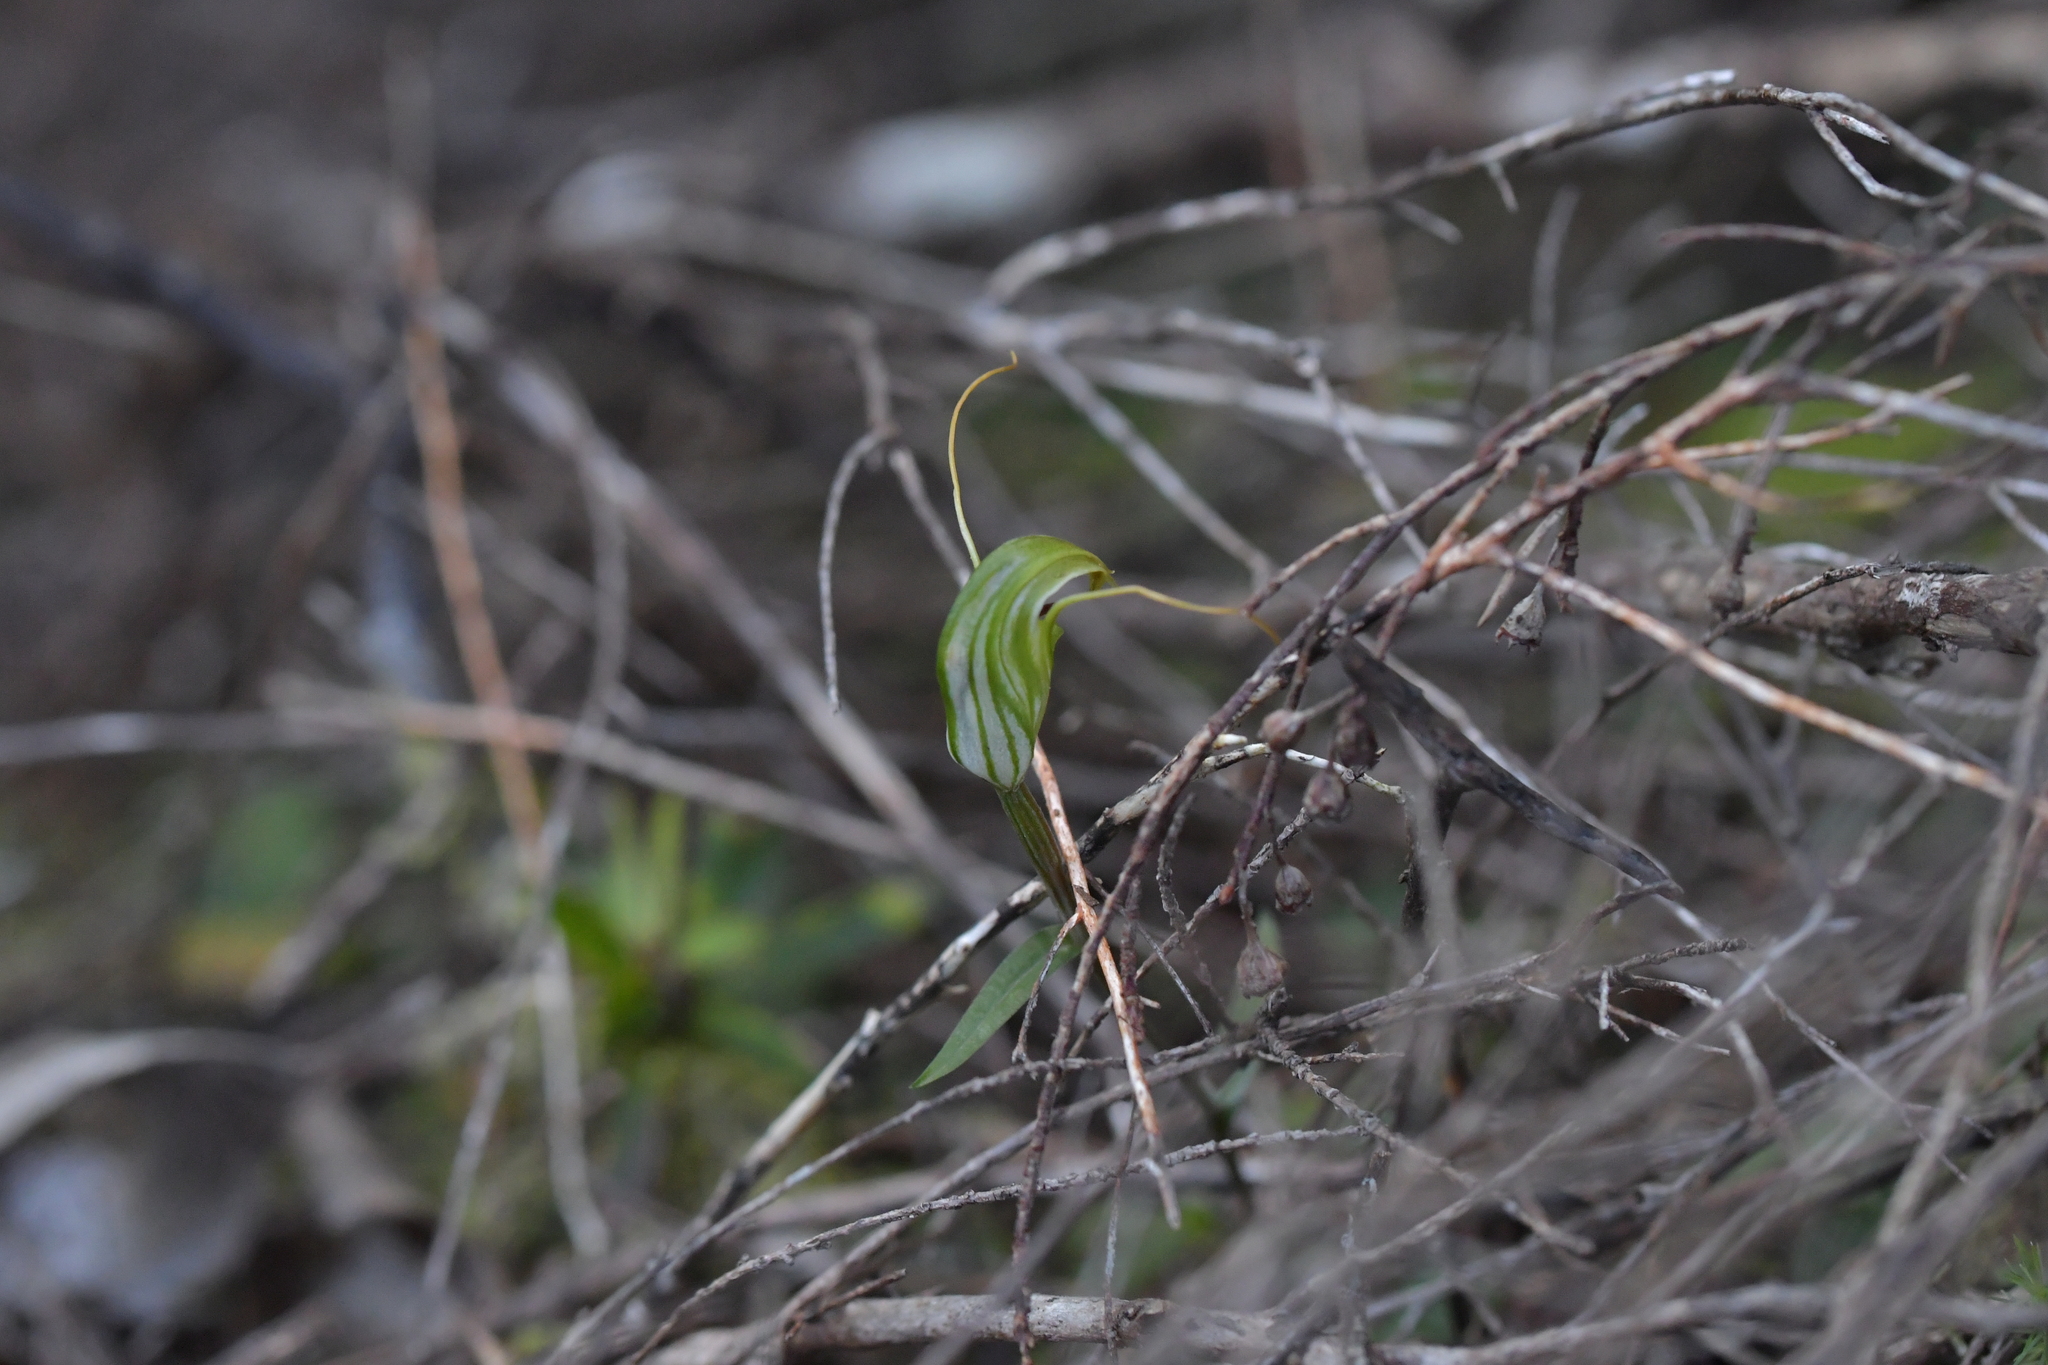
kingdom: Plantae
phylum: Tracheophyta
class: Liliopsida
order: Asparagales
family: Orchidaceae
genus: Pterostylis
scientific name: Pterostylis trullifolia
